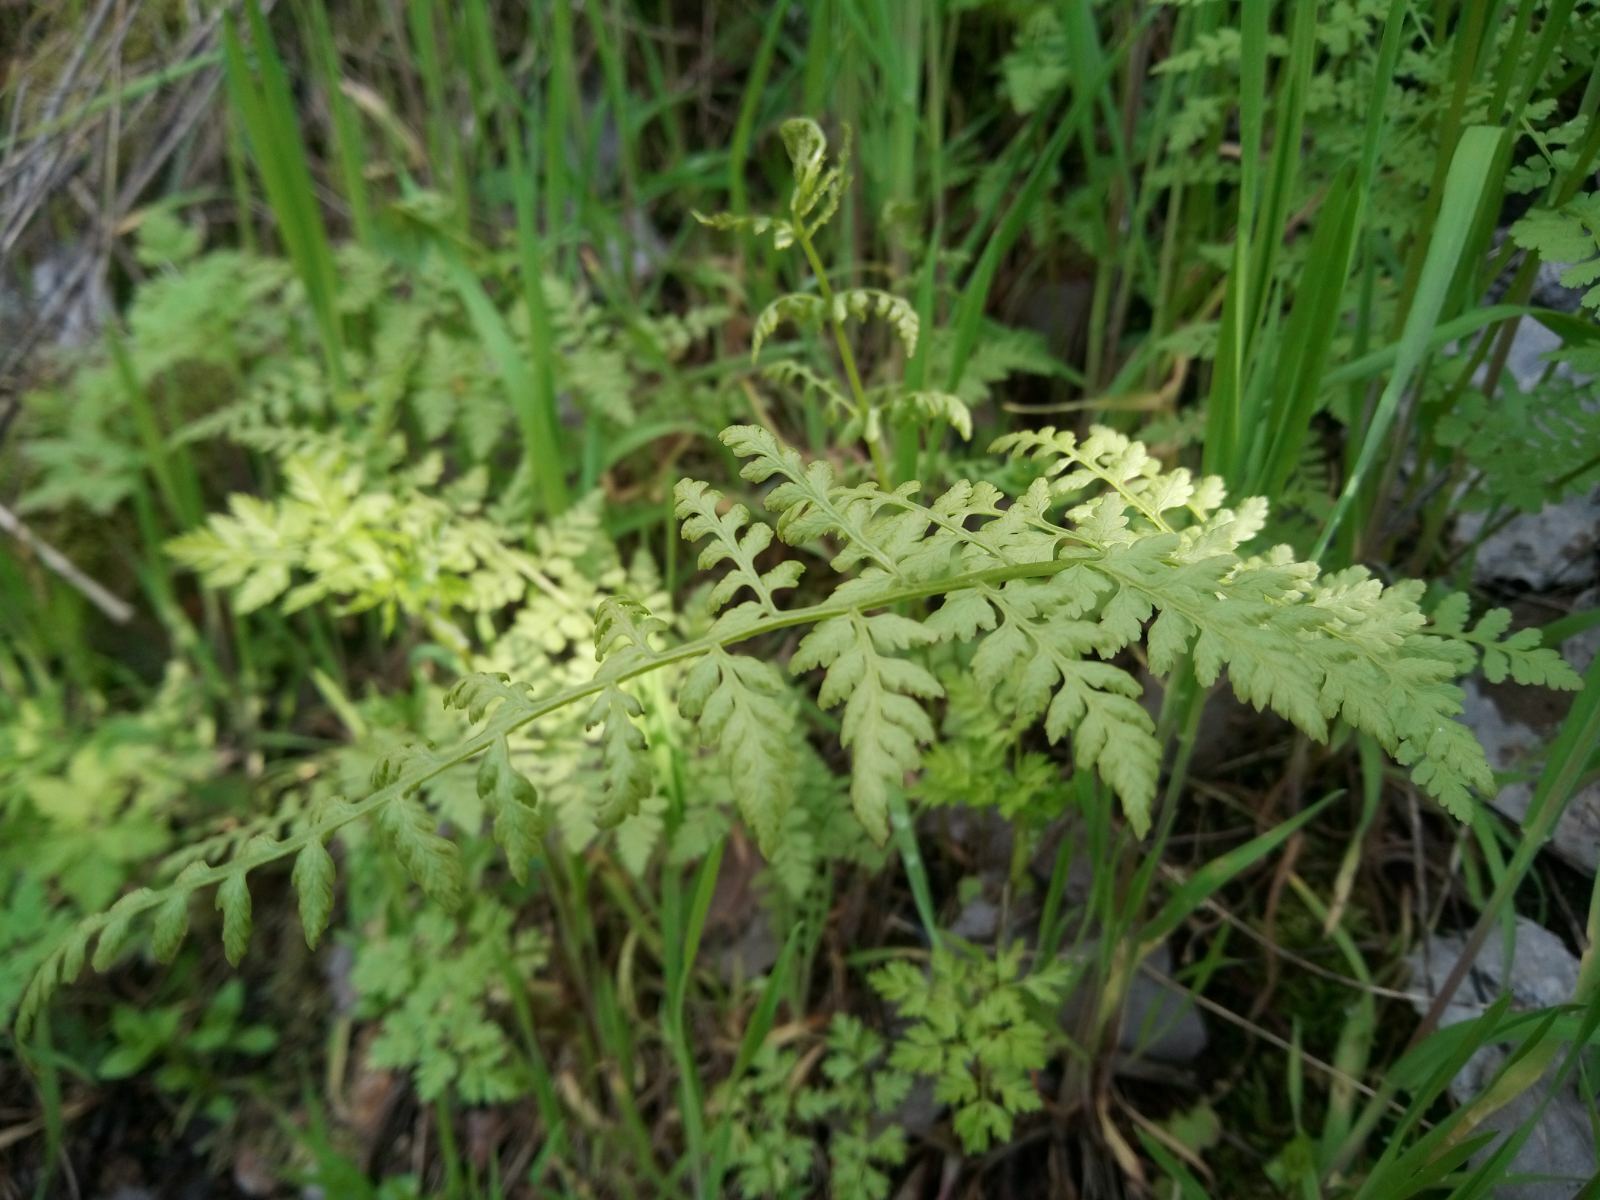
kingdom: Plantae
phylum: Tracheophyta
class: Polypodiopsida
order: Polypodiales
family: Cystopteridaceae
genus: Cystopteris
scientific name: Cystopteris fragilis
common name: Brittle bladder fern
